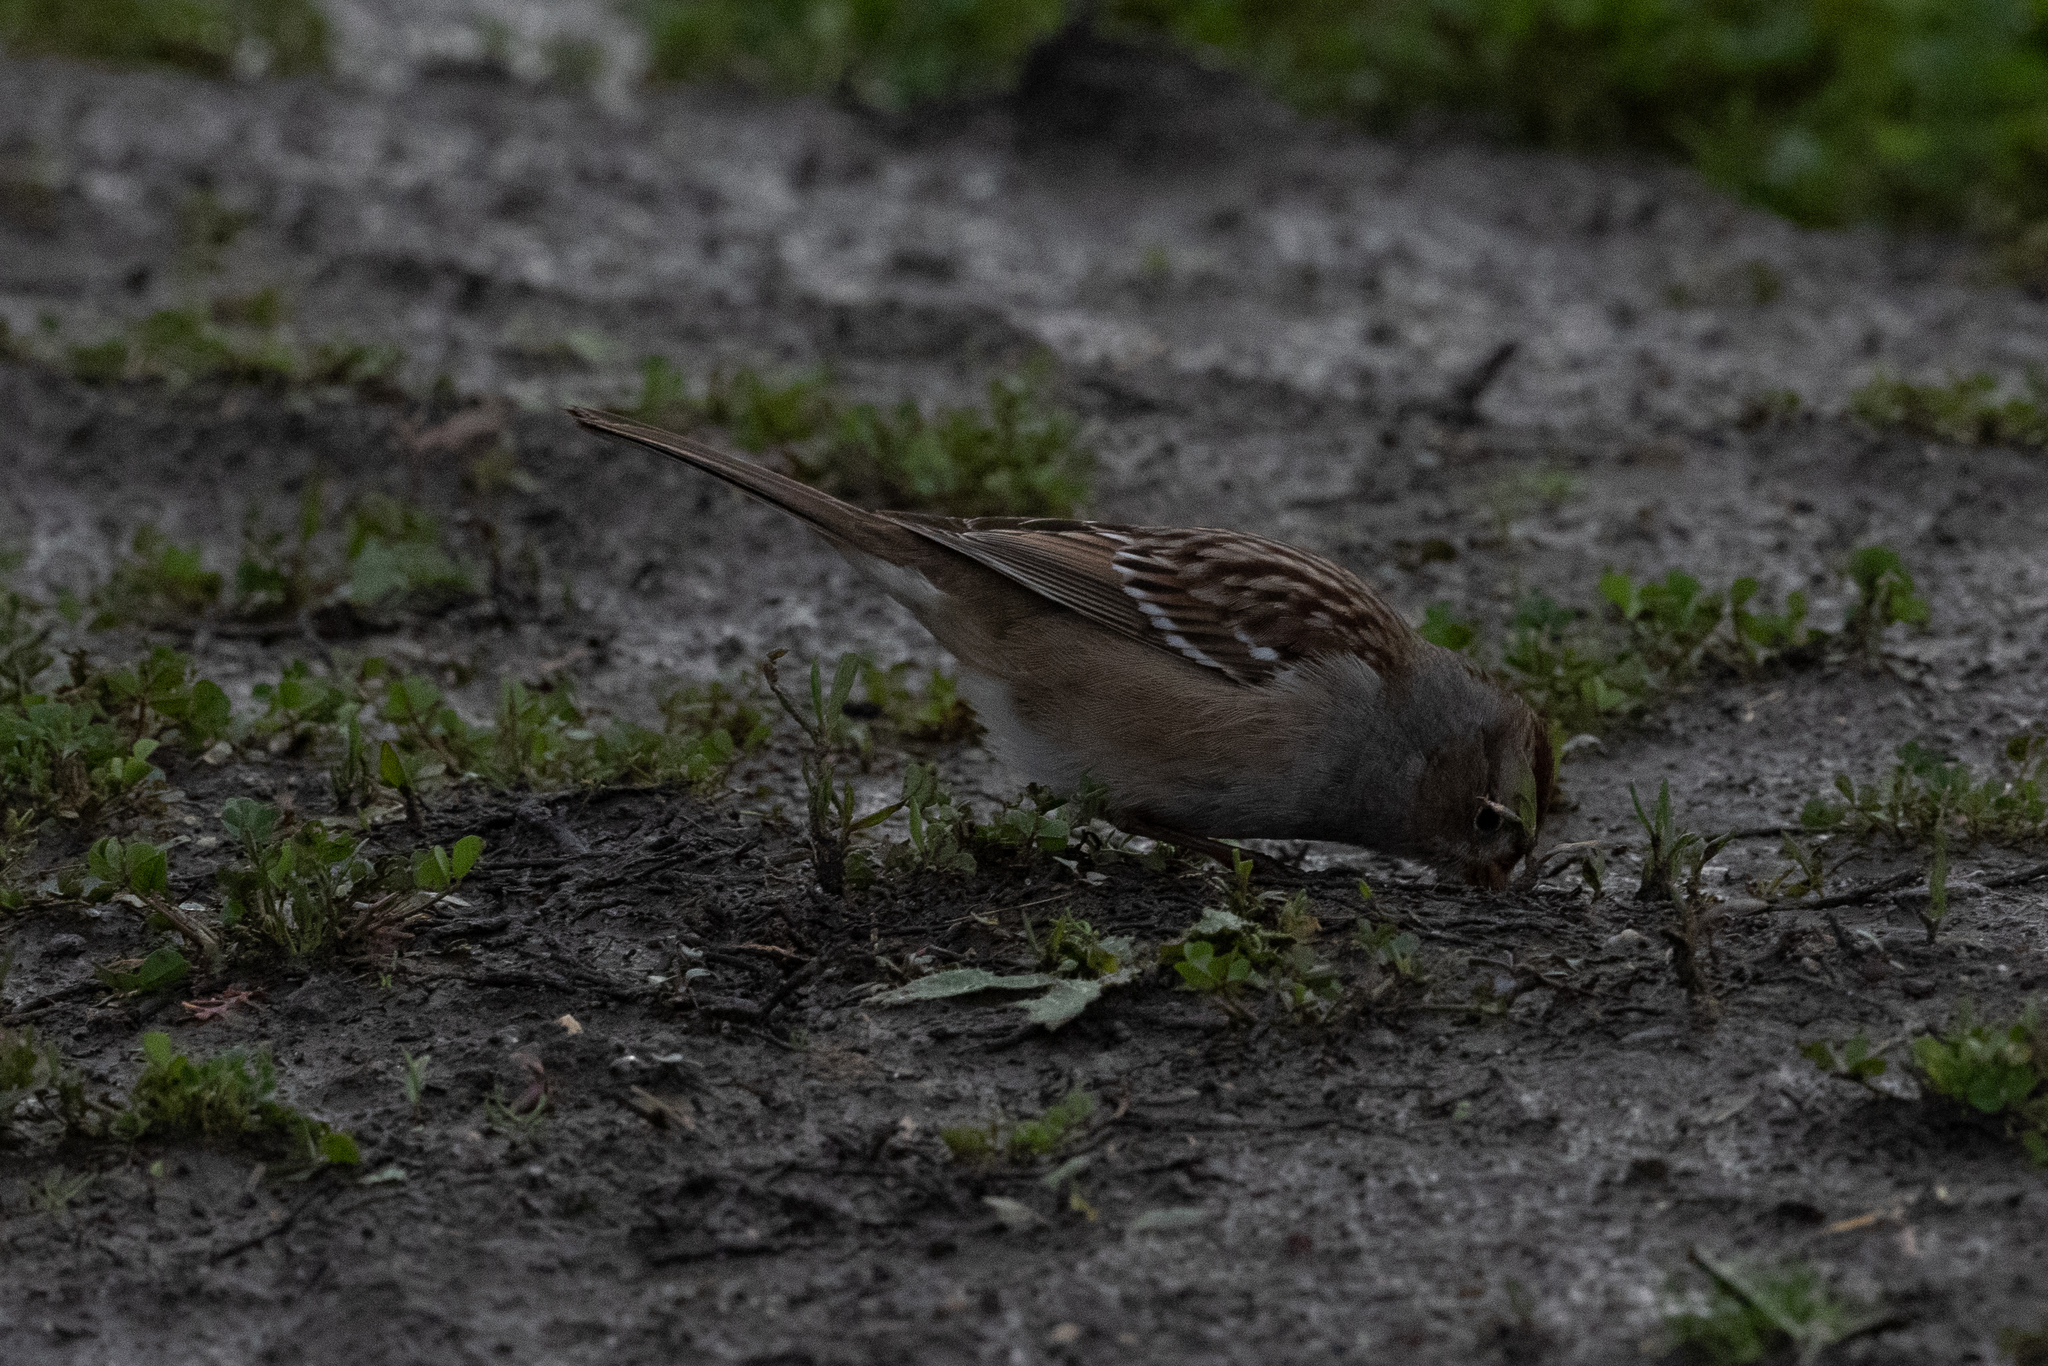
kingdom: Animalia
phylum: Chordata
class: Aves
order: Passeriformes
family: Passerellidae
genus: Zonotrichia
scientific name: Zonotrichia leucophrys
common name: White-crowned sparrow
